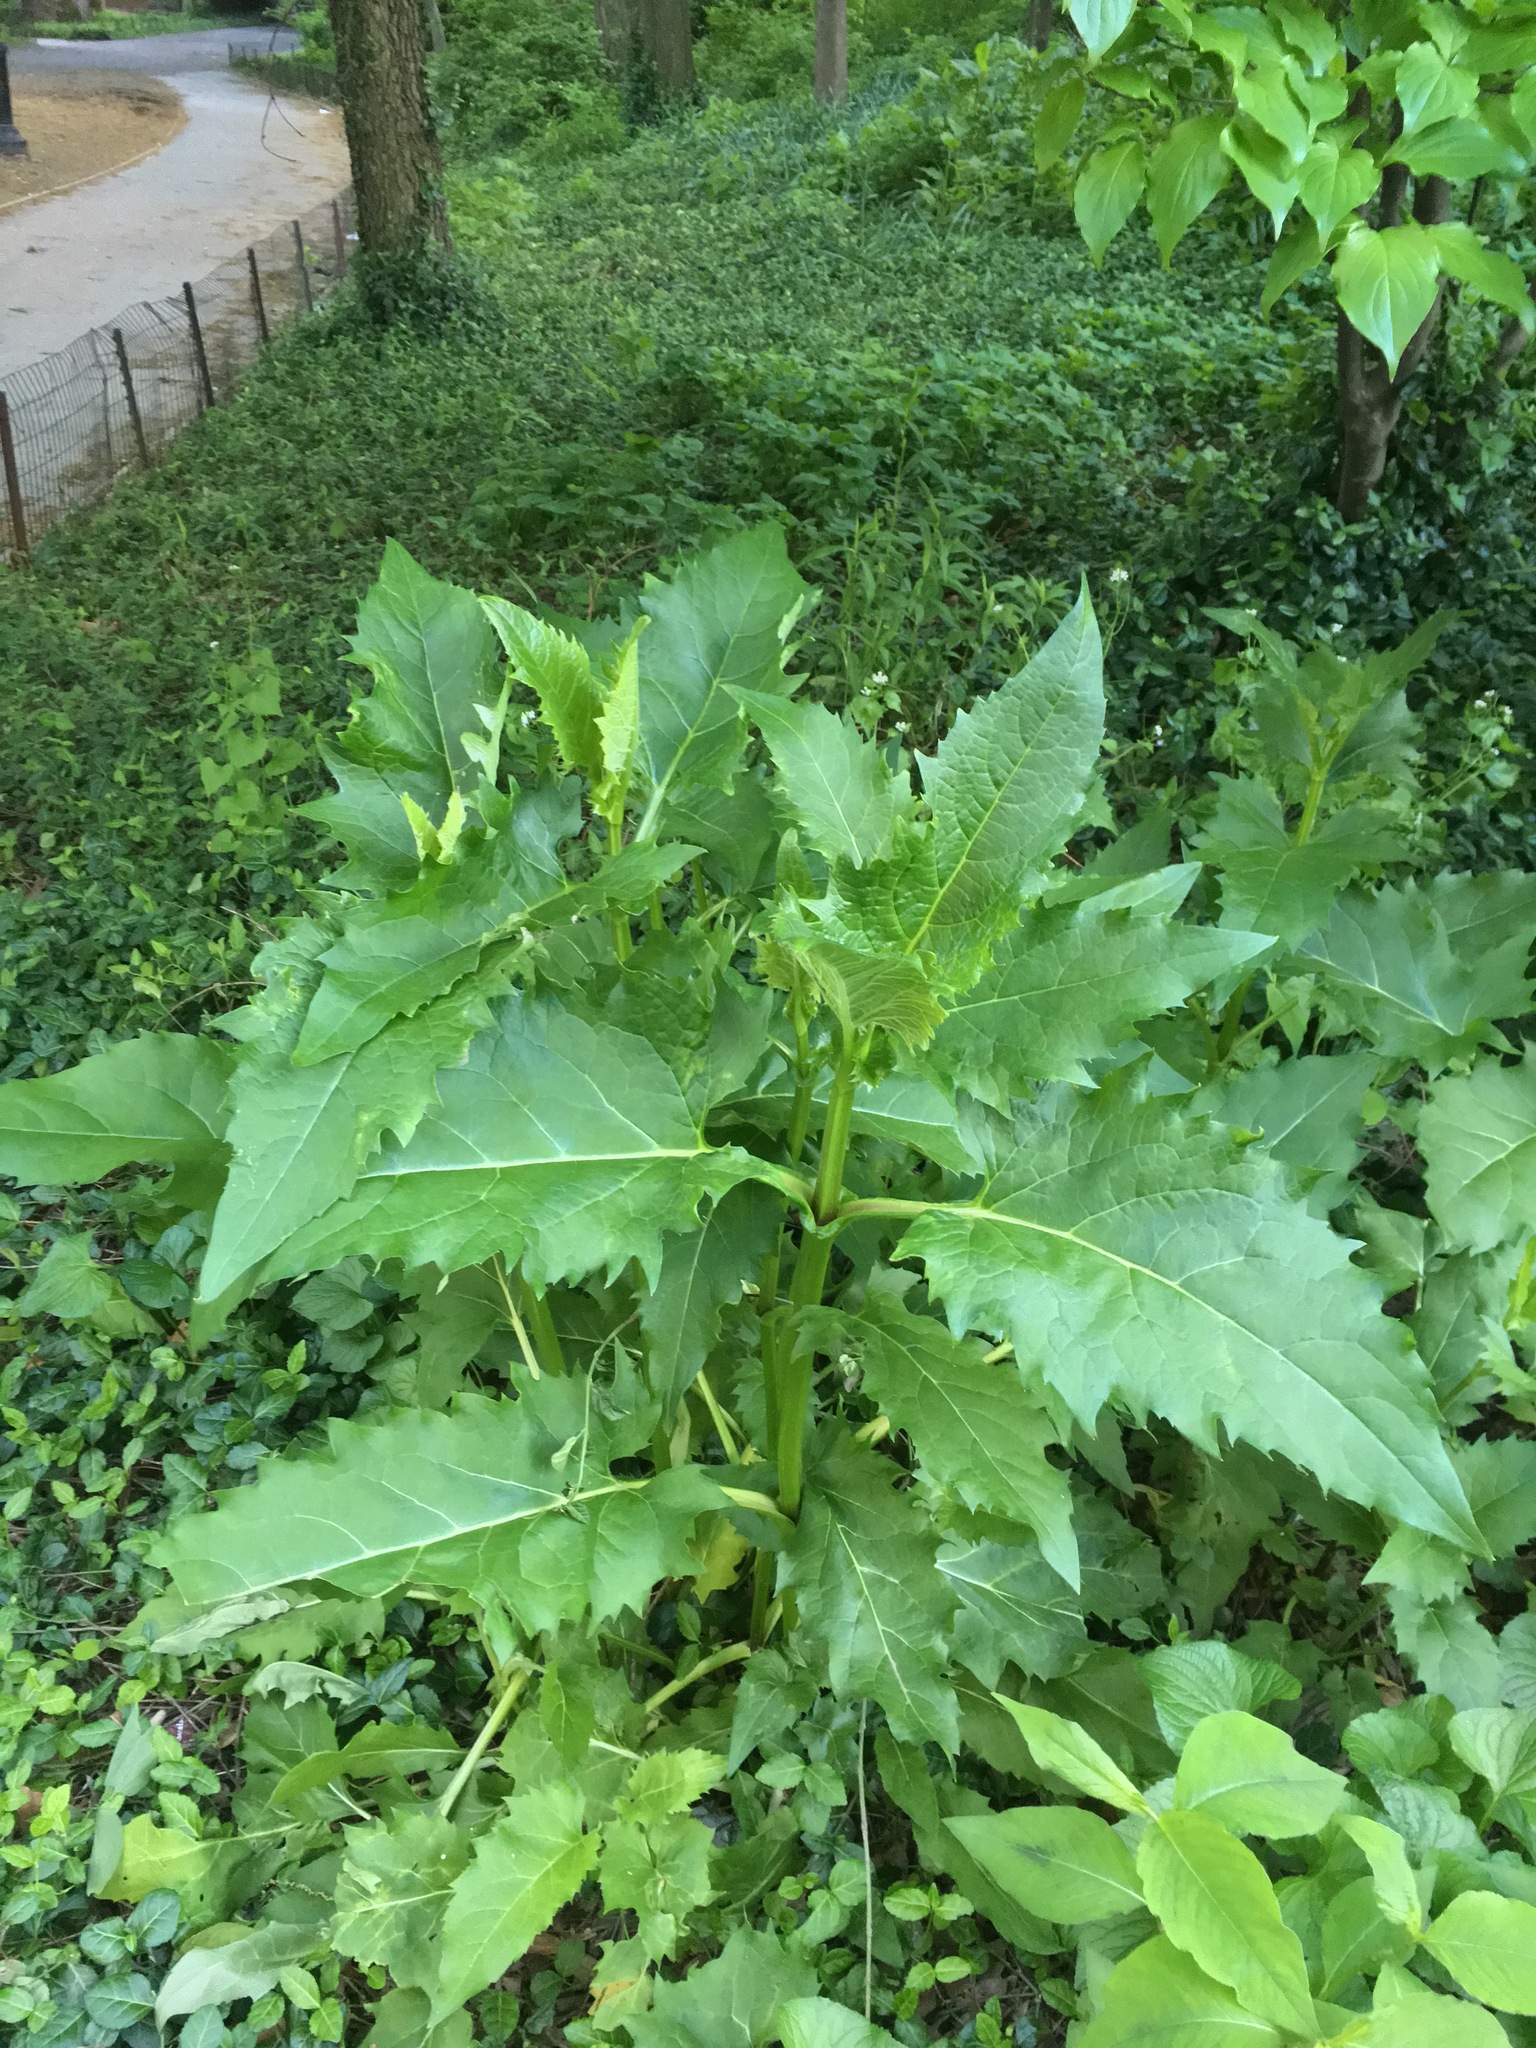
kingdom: Plantae
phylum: Tracheophyta
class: Magnoliopsida
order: Asterales
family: Asteraceae
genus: Silphium
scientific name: Silphium perfoliatum
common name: Cup-plant
